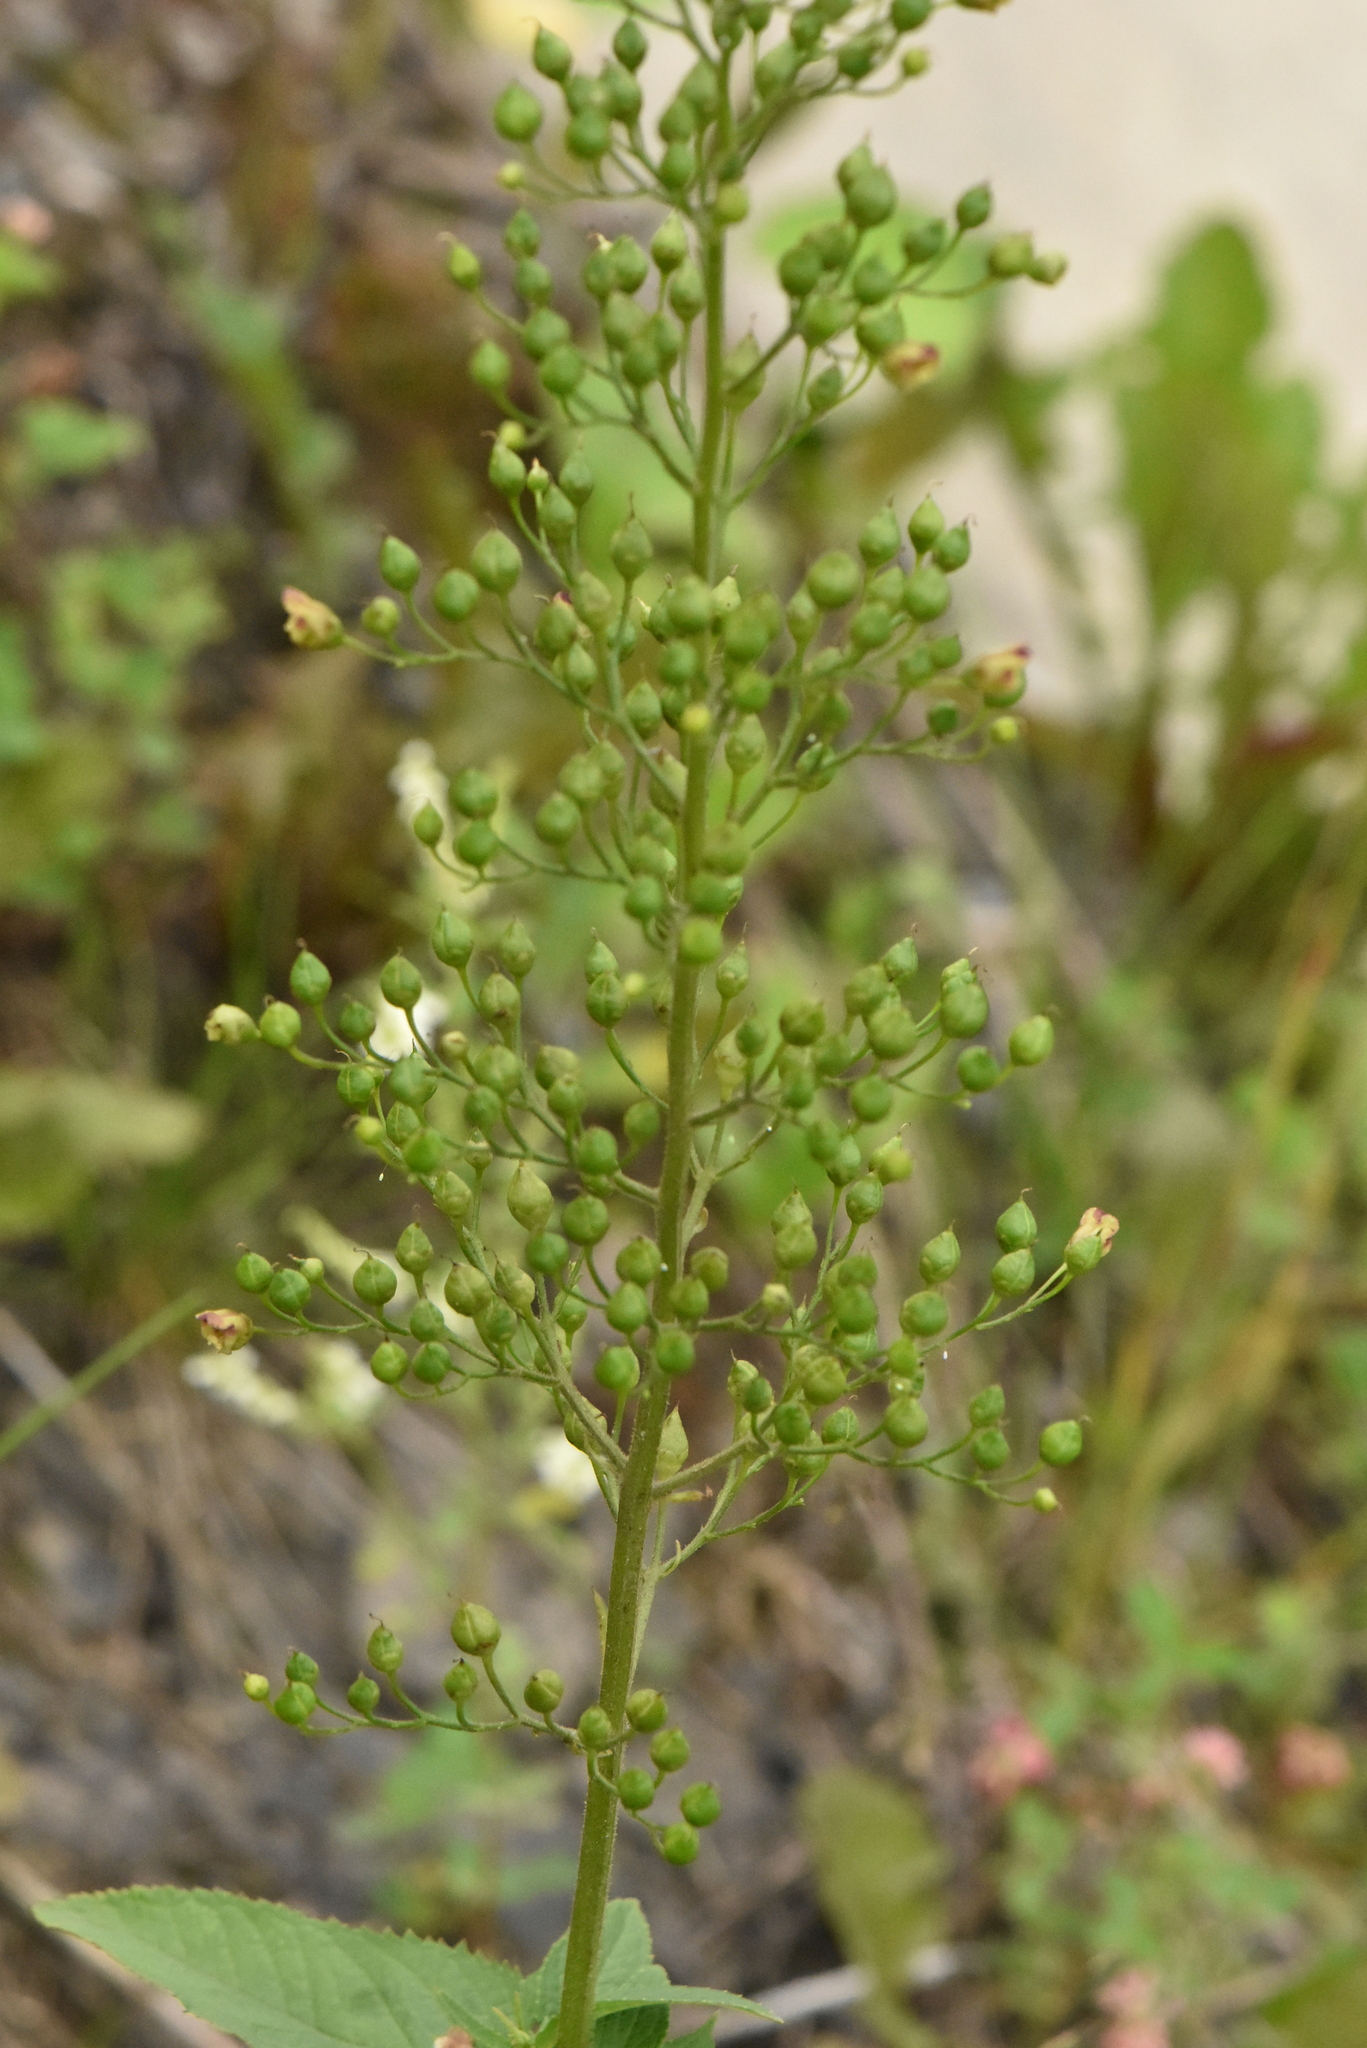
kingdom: Plantae
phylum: Tracheophyta
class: Magnoliopsida
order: Lamiales
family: Scrophulariaceae
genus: Scrophularia
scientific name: Scrophularia nodosa
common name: Common figwort
